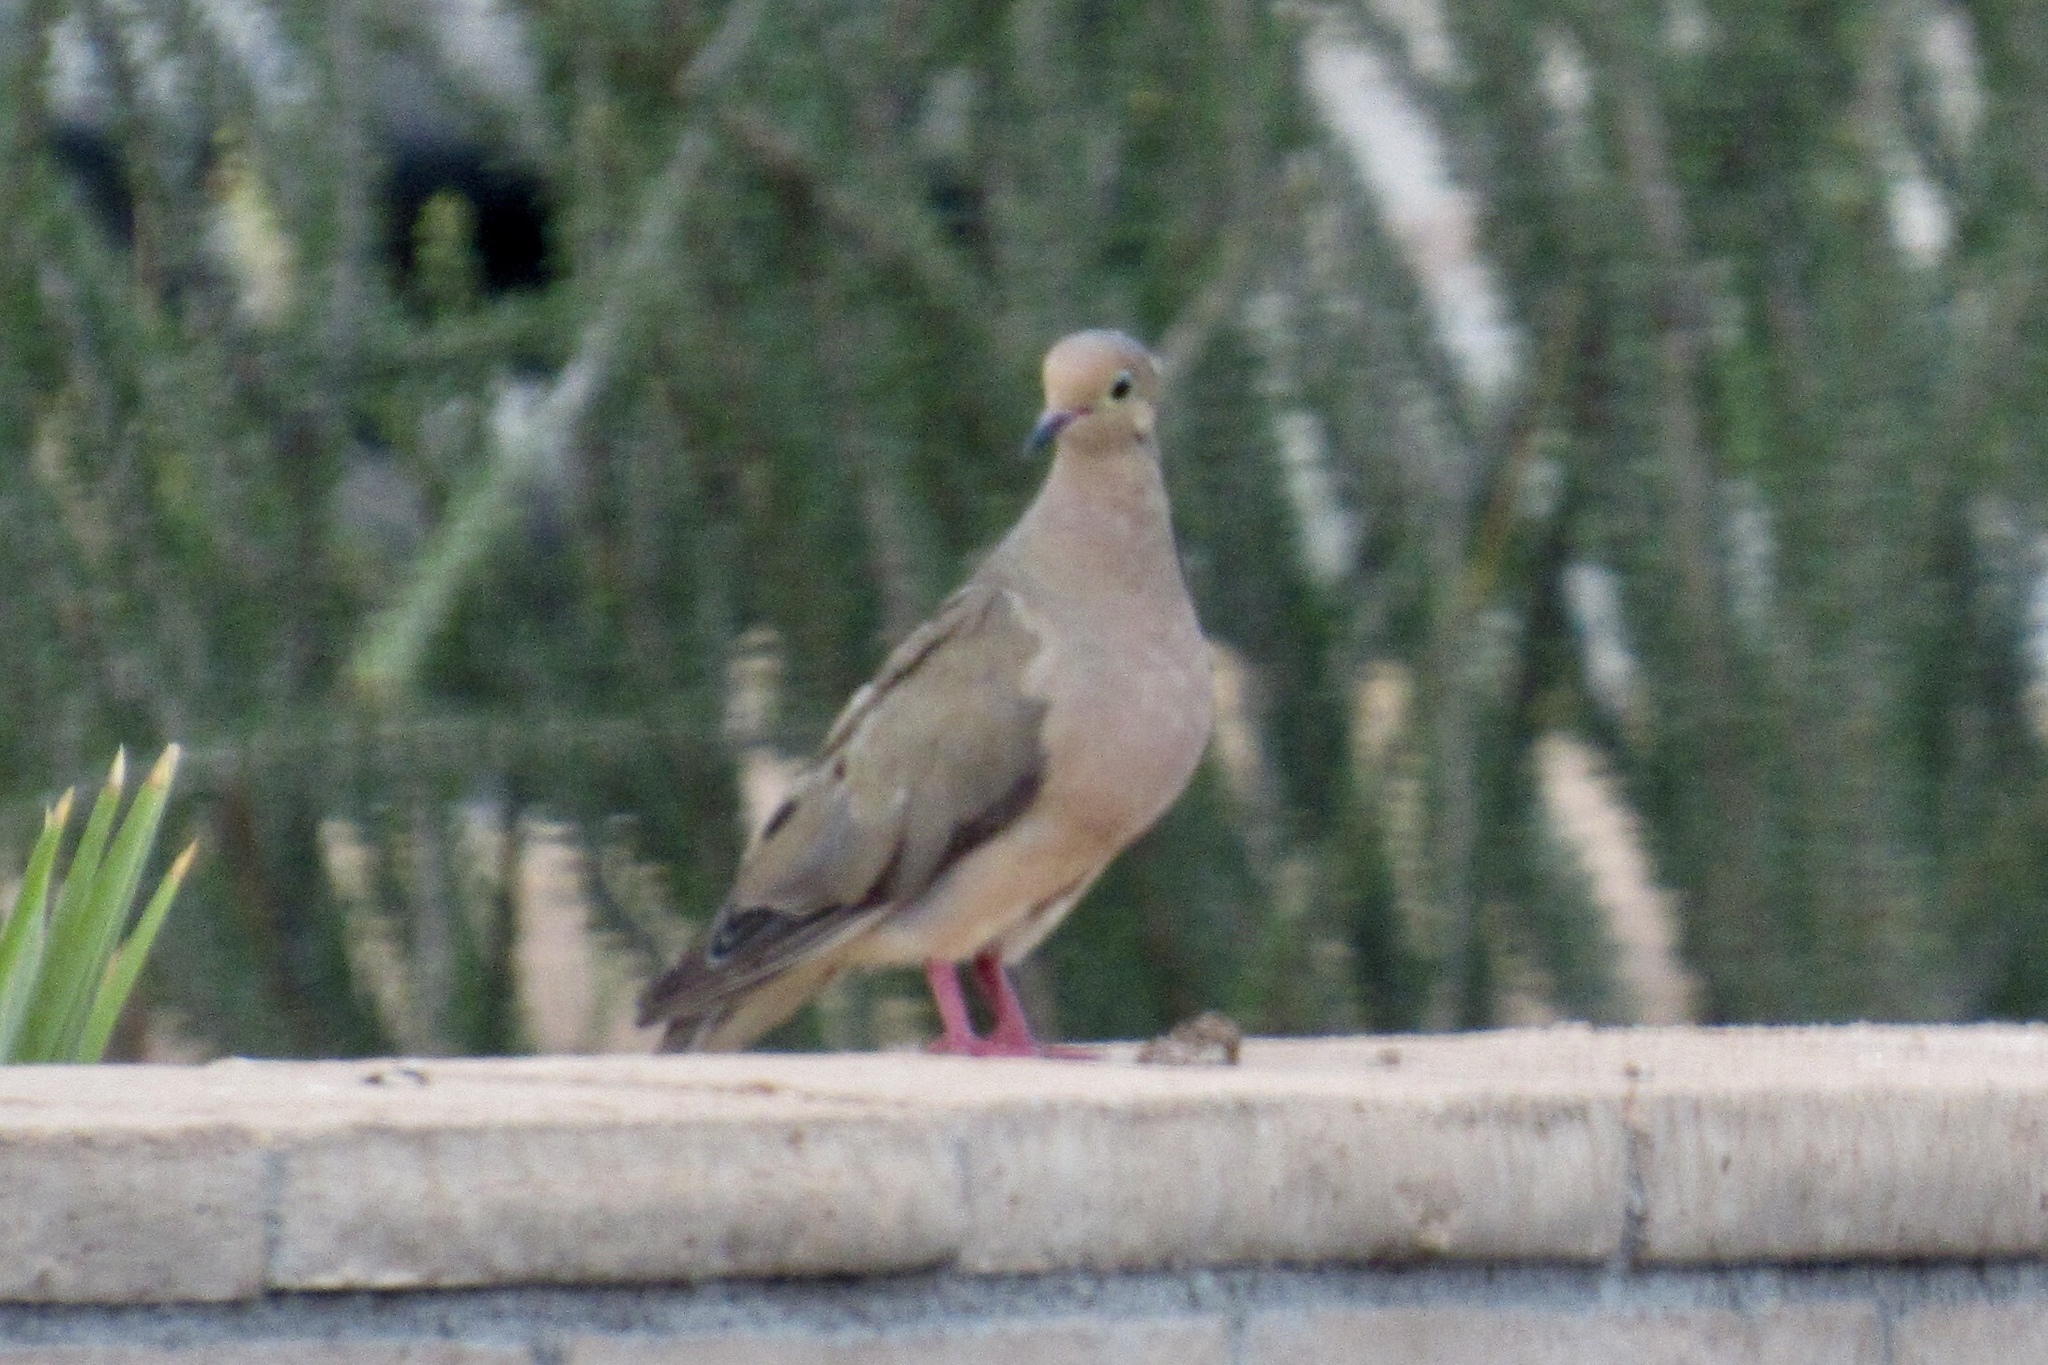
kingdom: Animalia
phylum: Chordata
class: Aves
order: Columbiformes
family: Columbidae
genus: Zenaida
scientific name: Zenaida macroura
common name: Mourning dove
